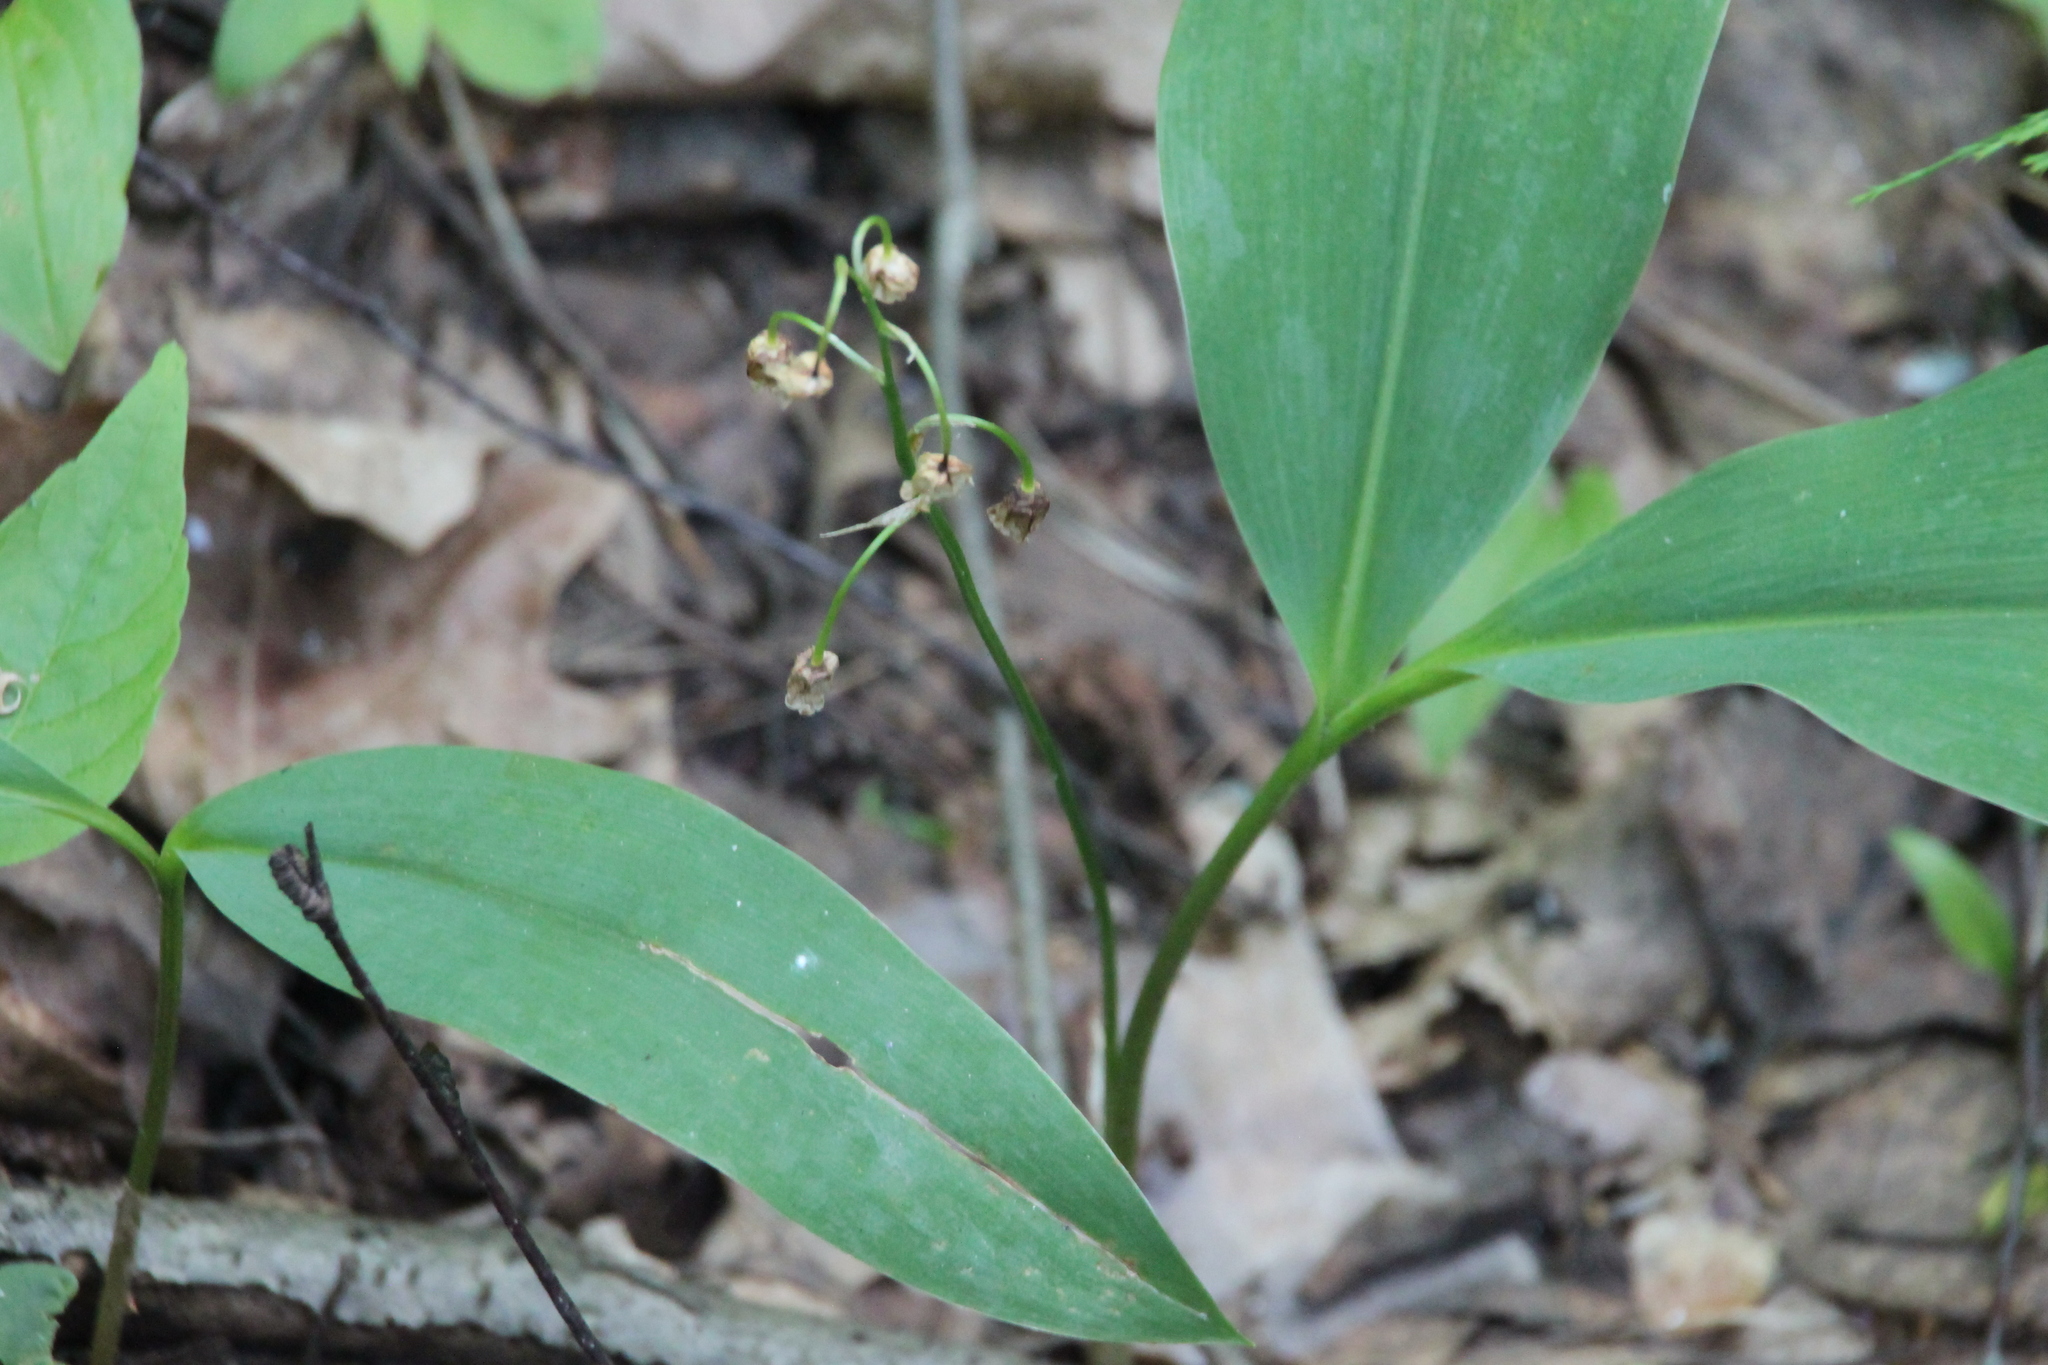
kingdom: Plantae
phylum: Tracheophyta
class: Liliopsida
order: Asparagales
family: Asparagaceae
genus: Convallaria
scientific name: Convallaria majalis
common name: Lily-of-the-valley
